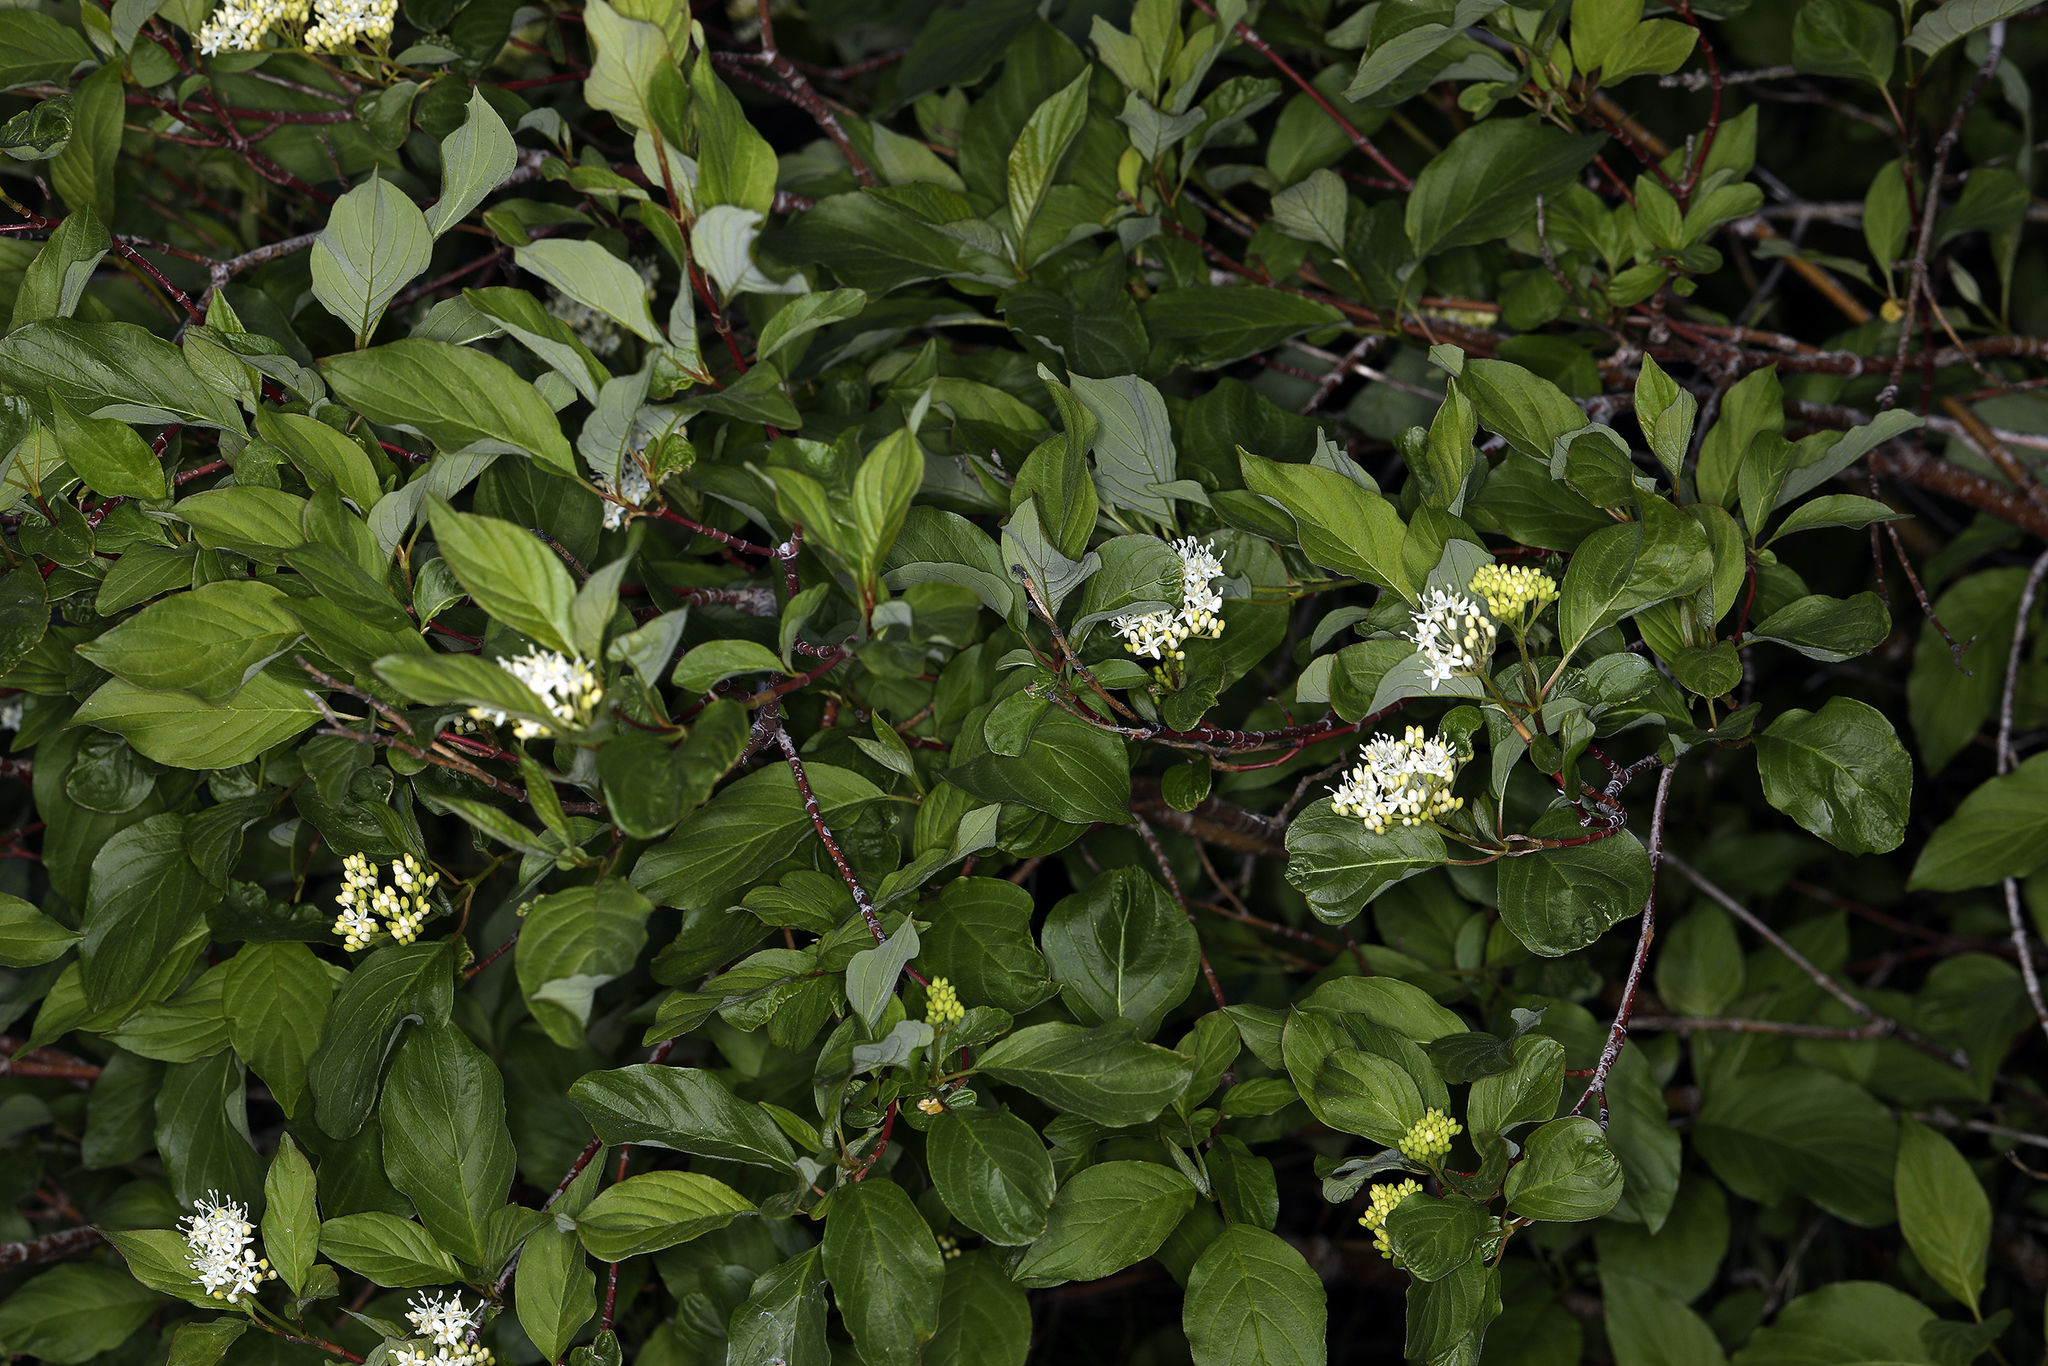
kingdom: Plantae
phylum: Tracheophyta
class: Magnoliopsida
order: Cornales
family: Cornaceae
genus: Cornus
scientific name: Cornus sericea
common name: Red-osier dogwood
